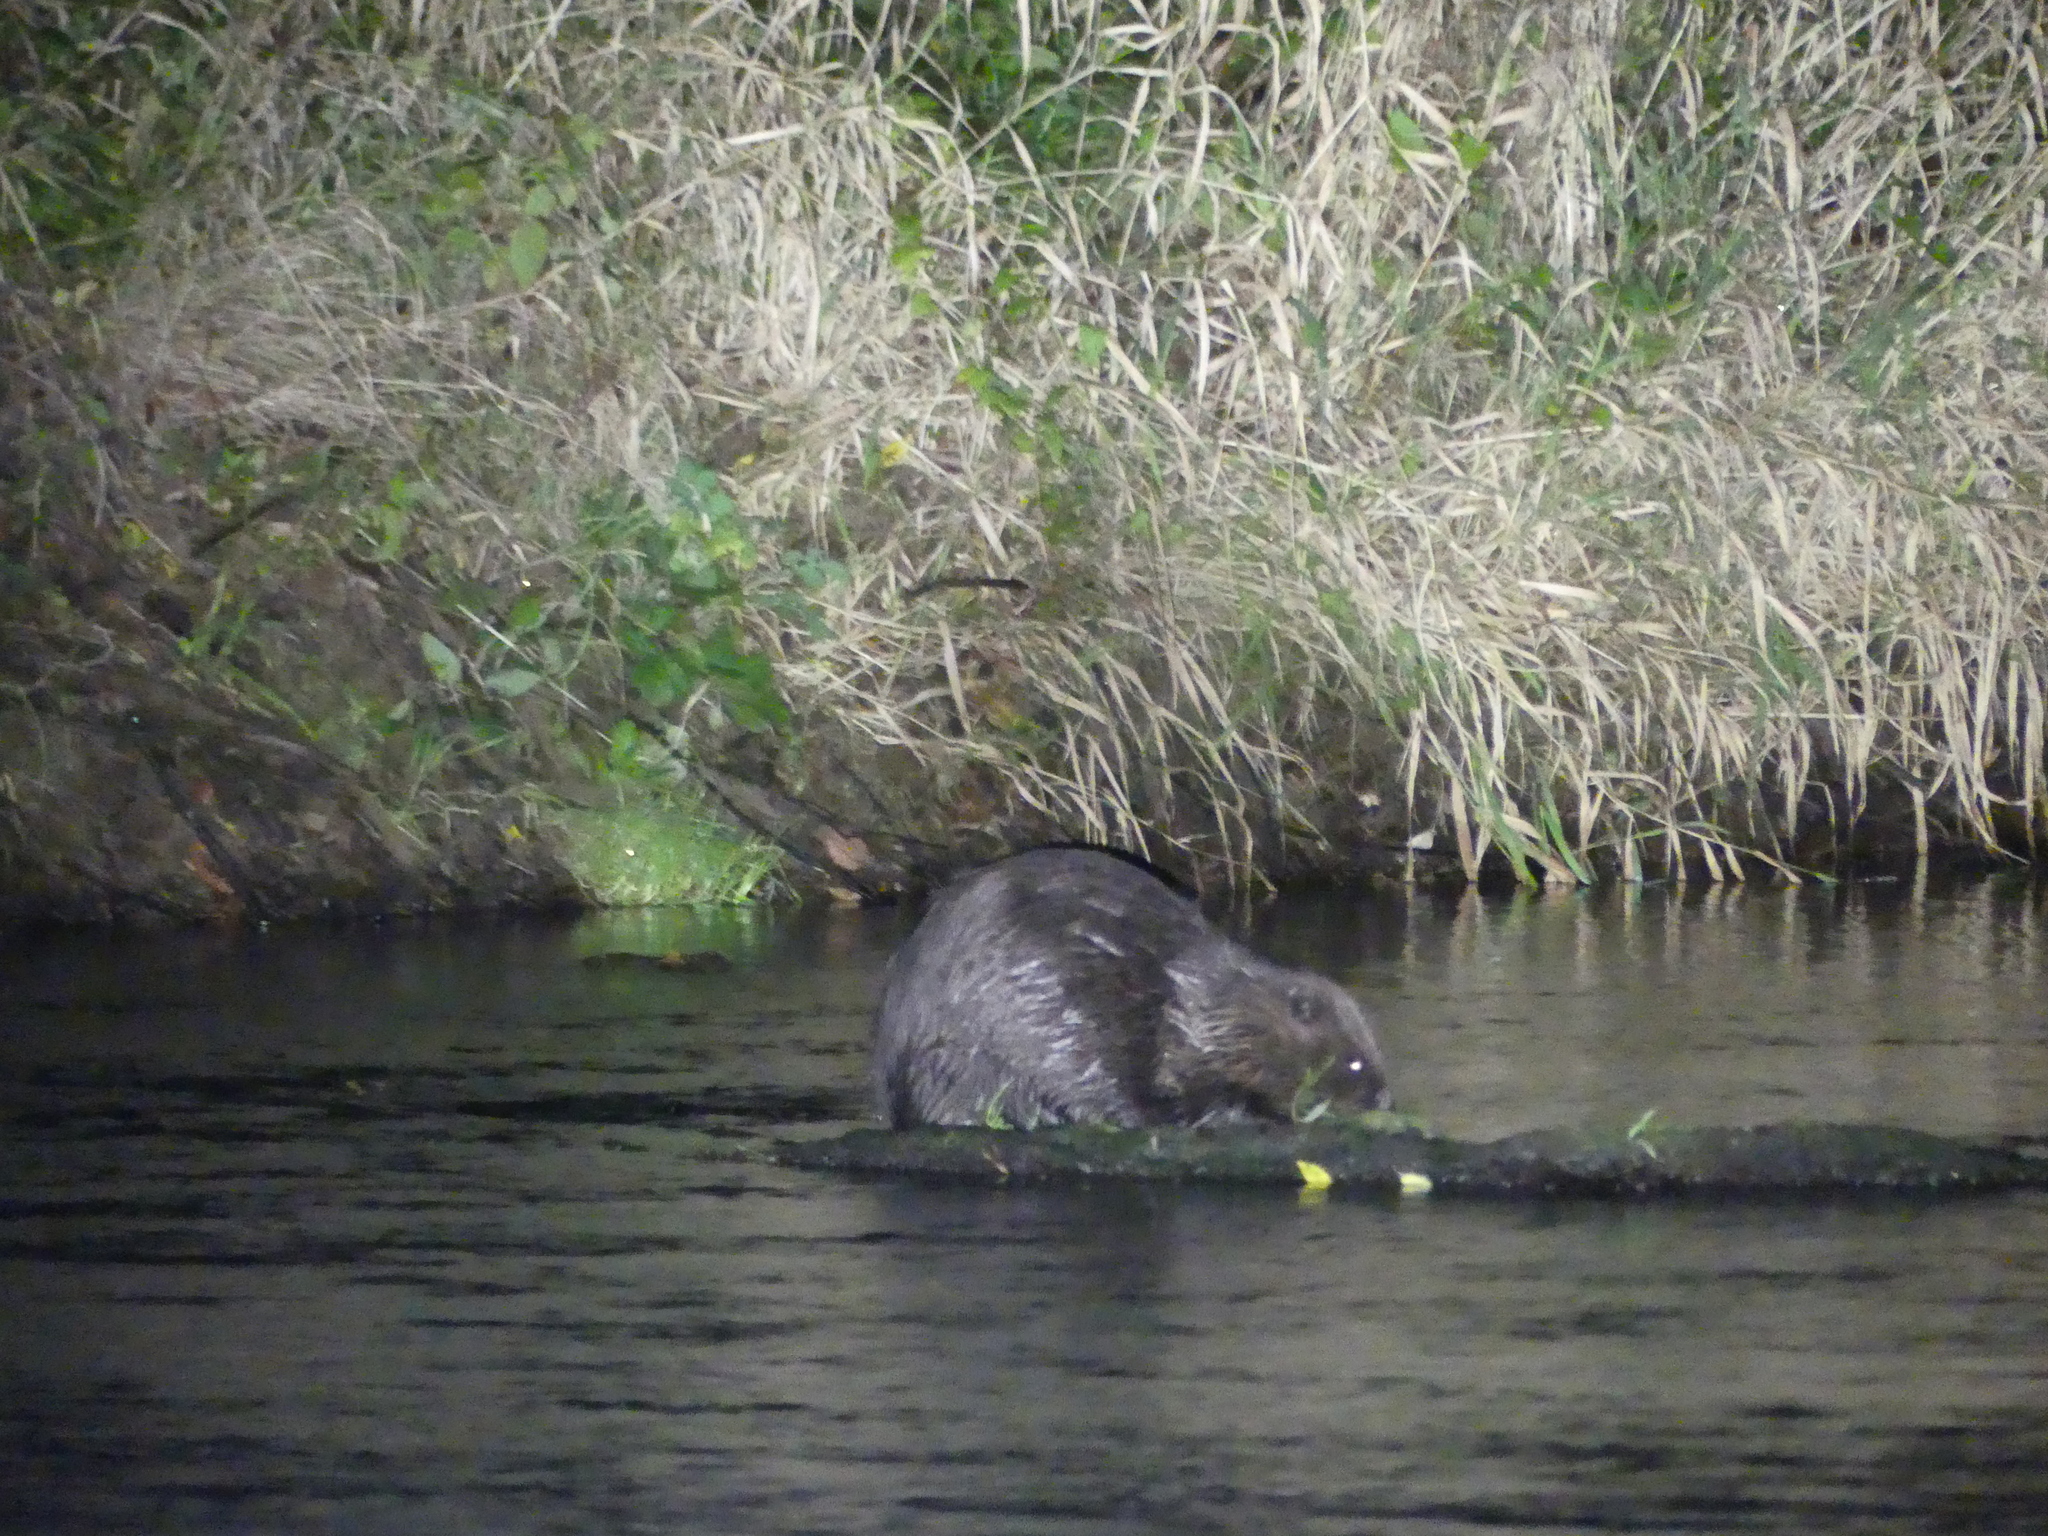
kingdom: Animalia
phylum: Chordata
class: Mammalia
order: Rodentia
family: Castoridae
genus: Castor
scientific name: Castor fiber
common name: Eurasian beaver
